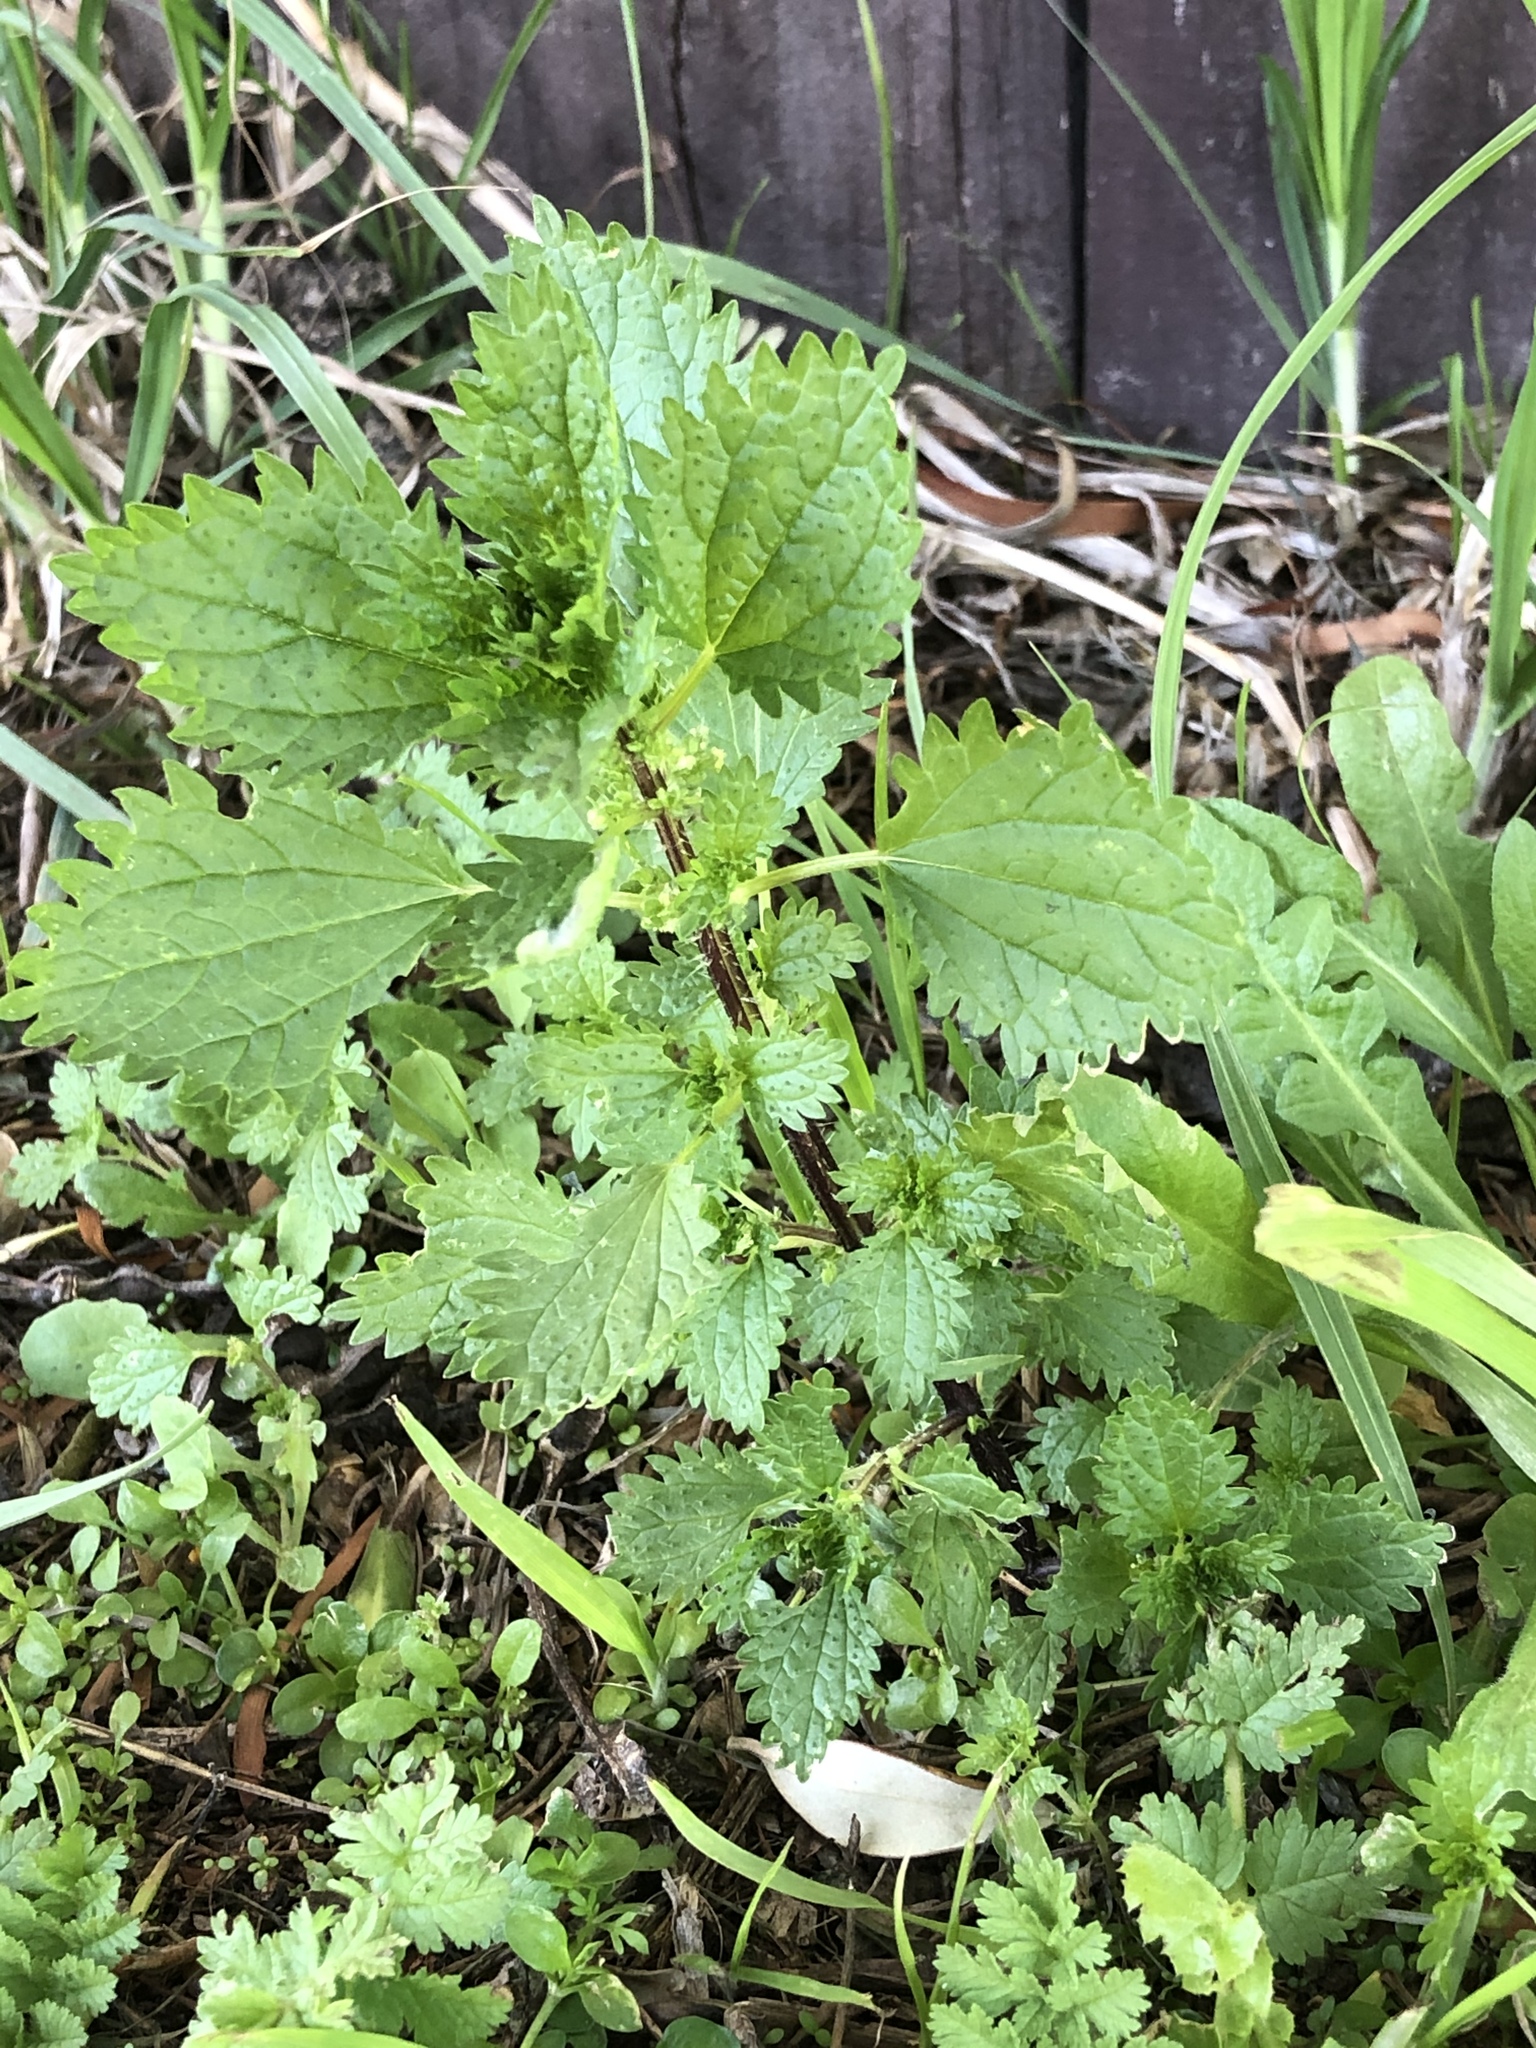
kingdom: Plantae
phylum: Tracheophyta
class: Magnoliopsida
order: Rosales
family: Urticaceae
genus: Urtica
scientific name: Urtica urens
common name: Dwarf nettle
